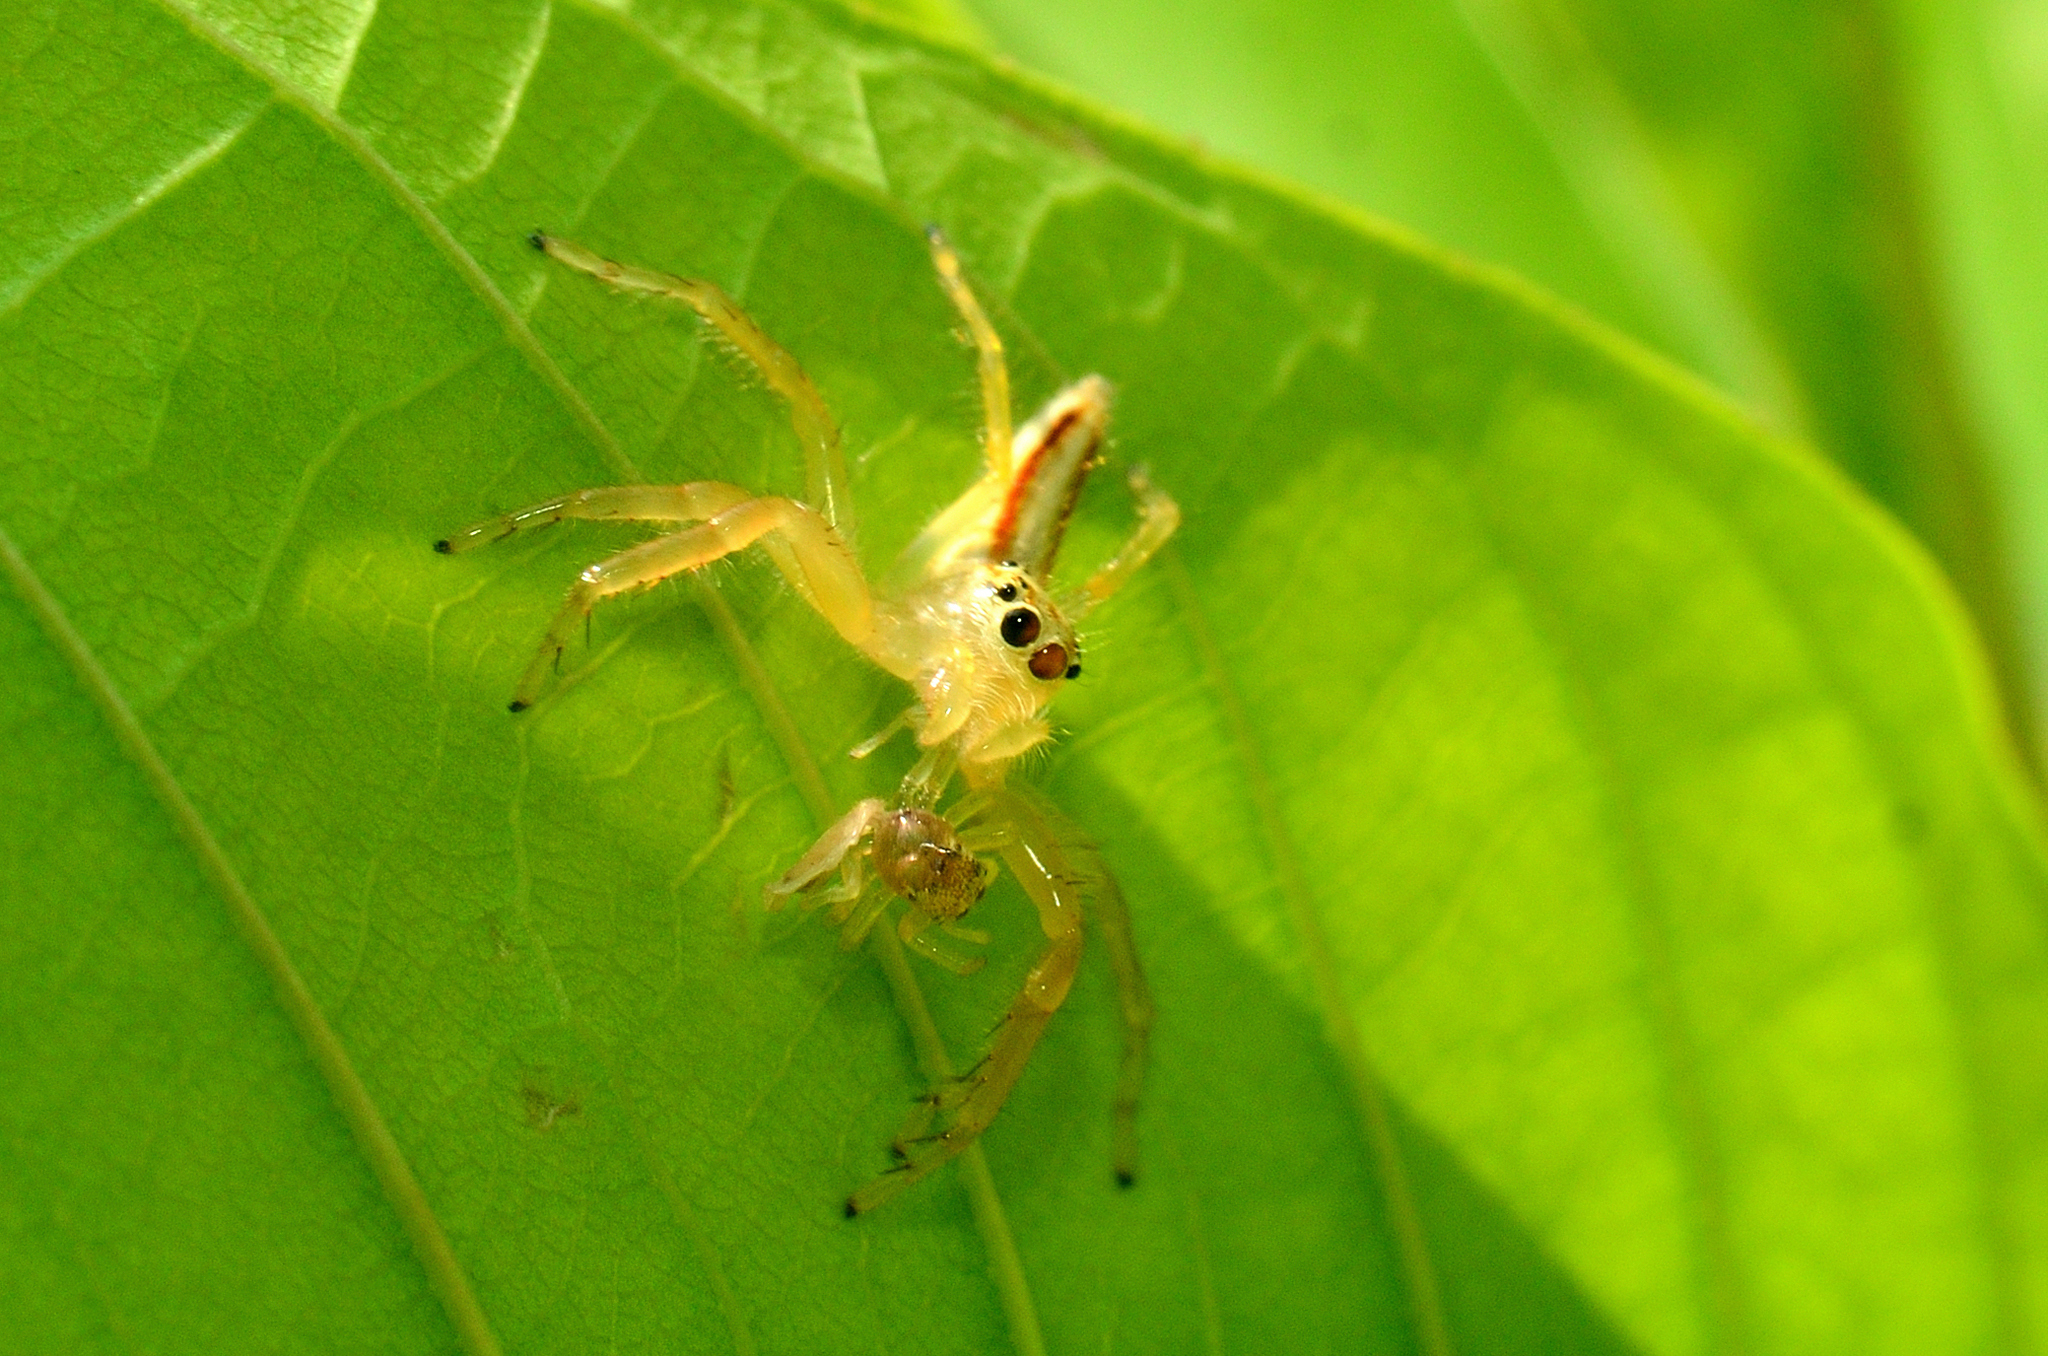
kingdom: Animalia
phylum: Arthropoda
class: Arachnida
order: Araneae
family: Salticidae
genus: Telamonia
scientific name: Telamonia dimidiata
